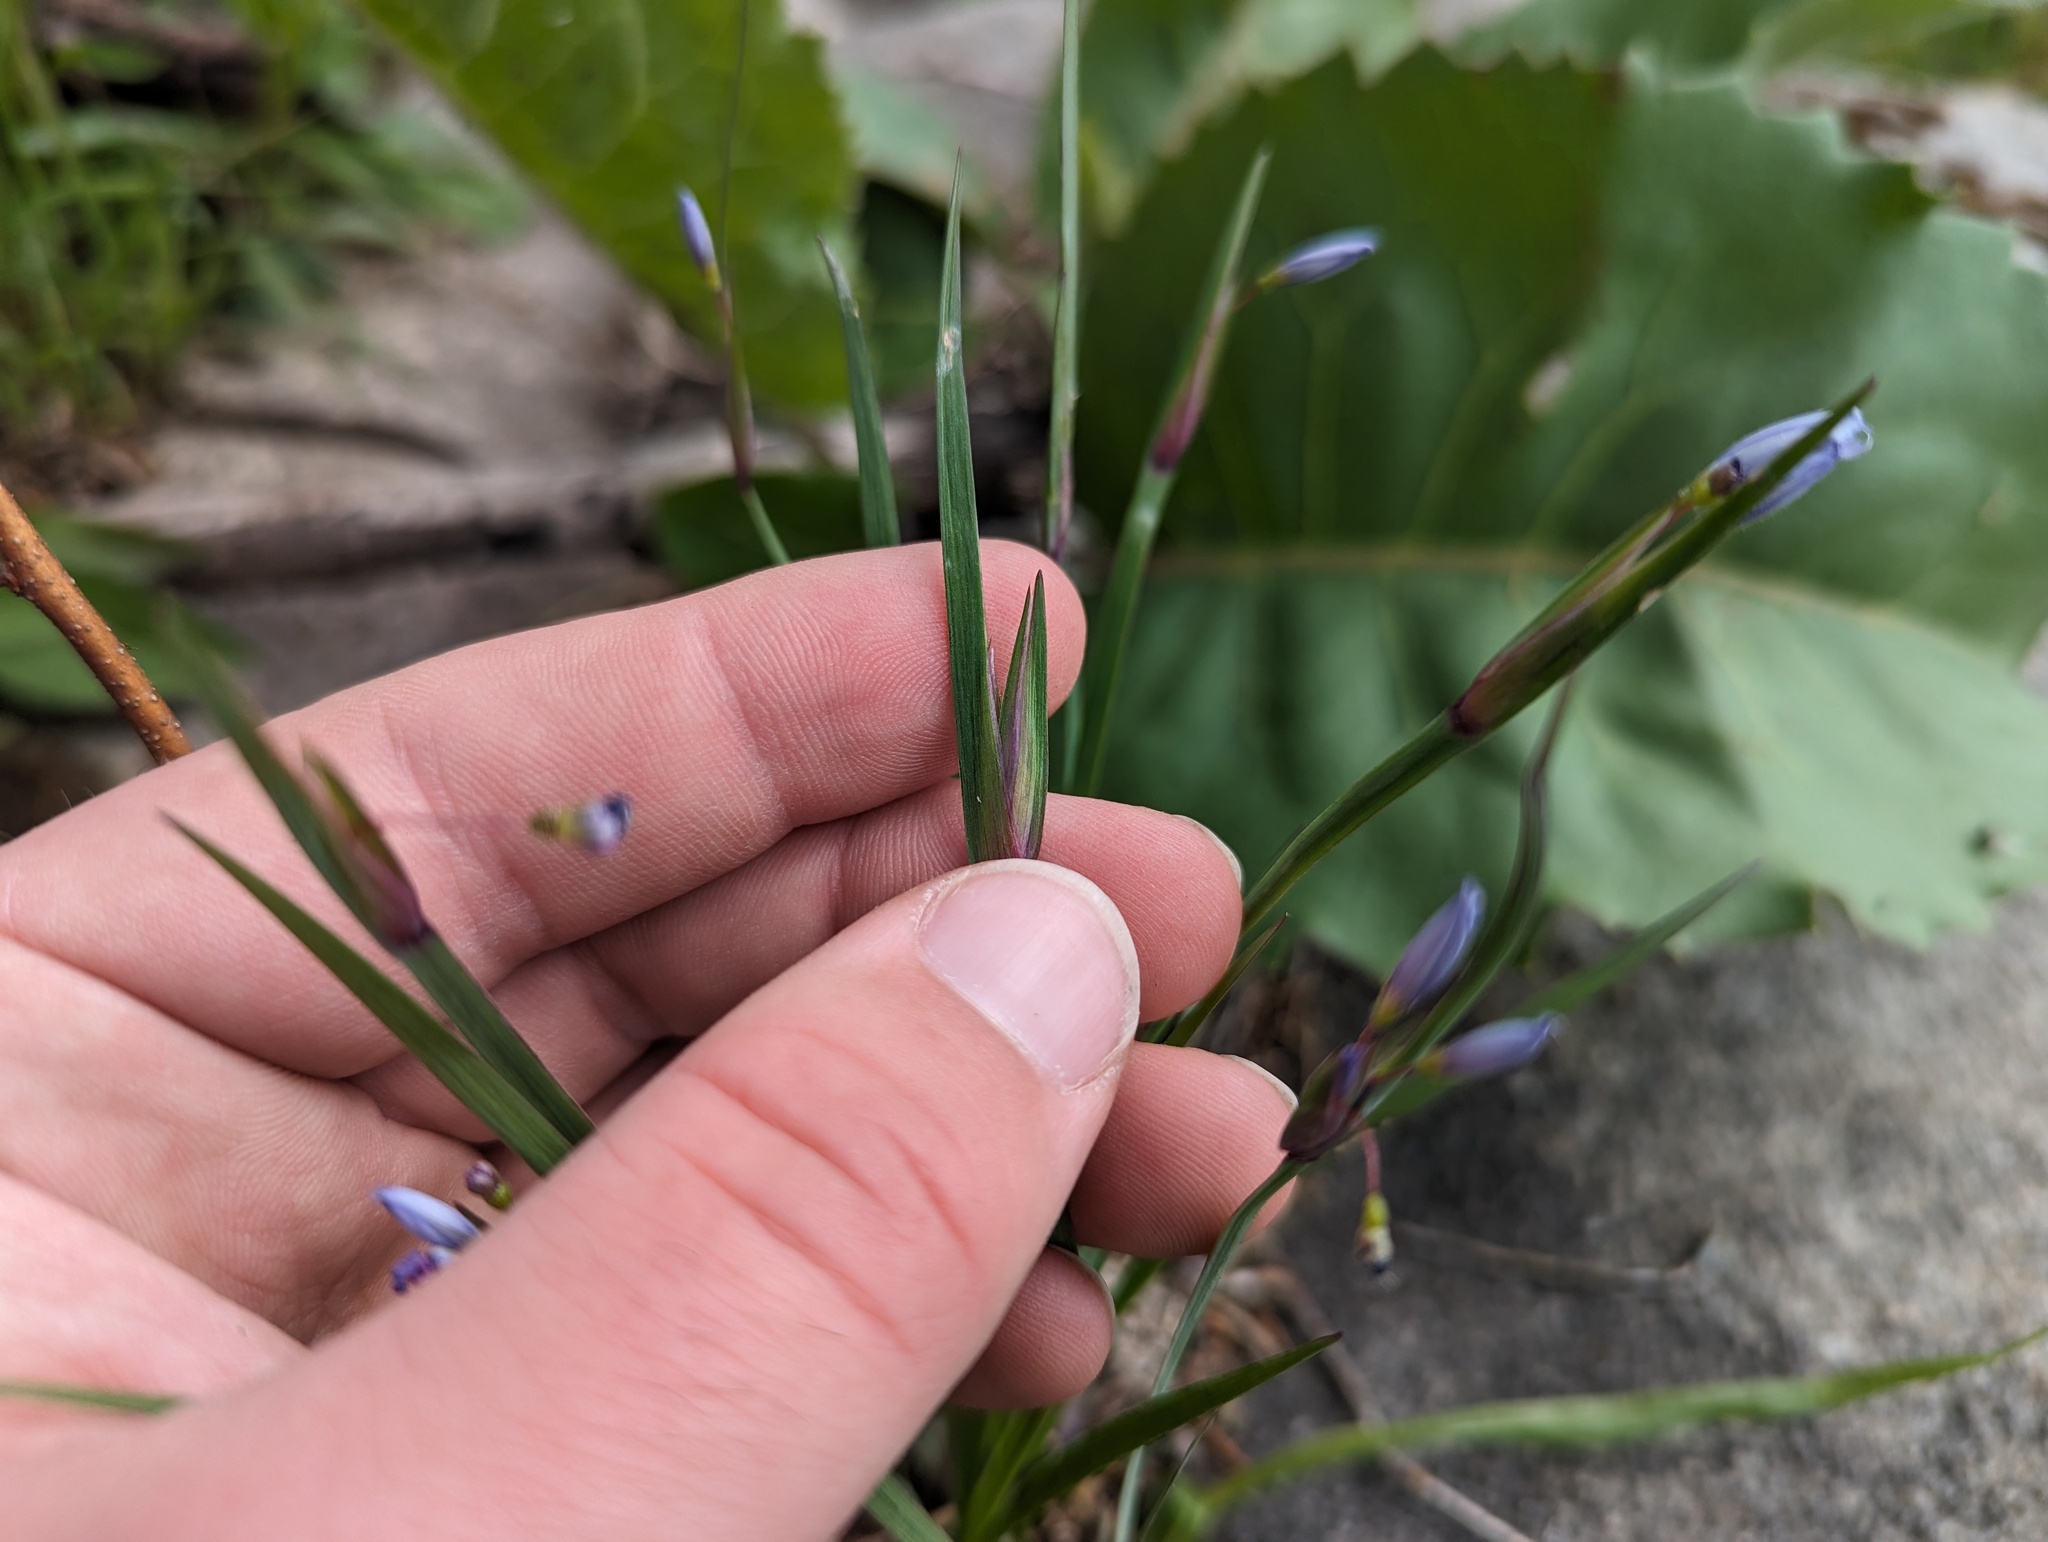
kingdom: Plantae
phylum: Tracheophyta
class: Liliopsida
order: Asparagales
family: Iridaceae
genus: Sisyrinchium
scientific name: Sisyrinchium albidum
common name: Pale blue-eyed-grass
